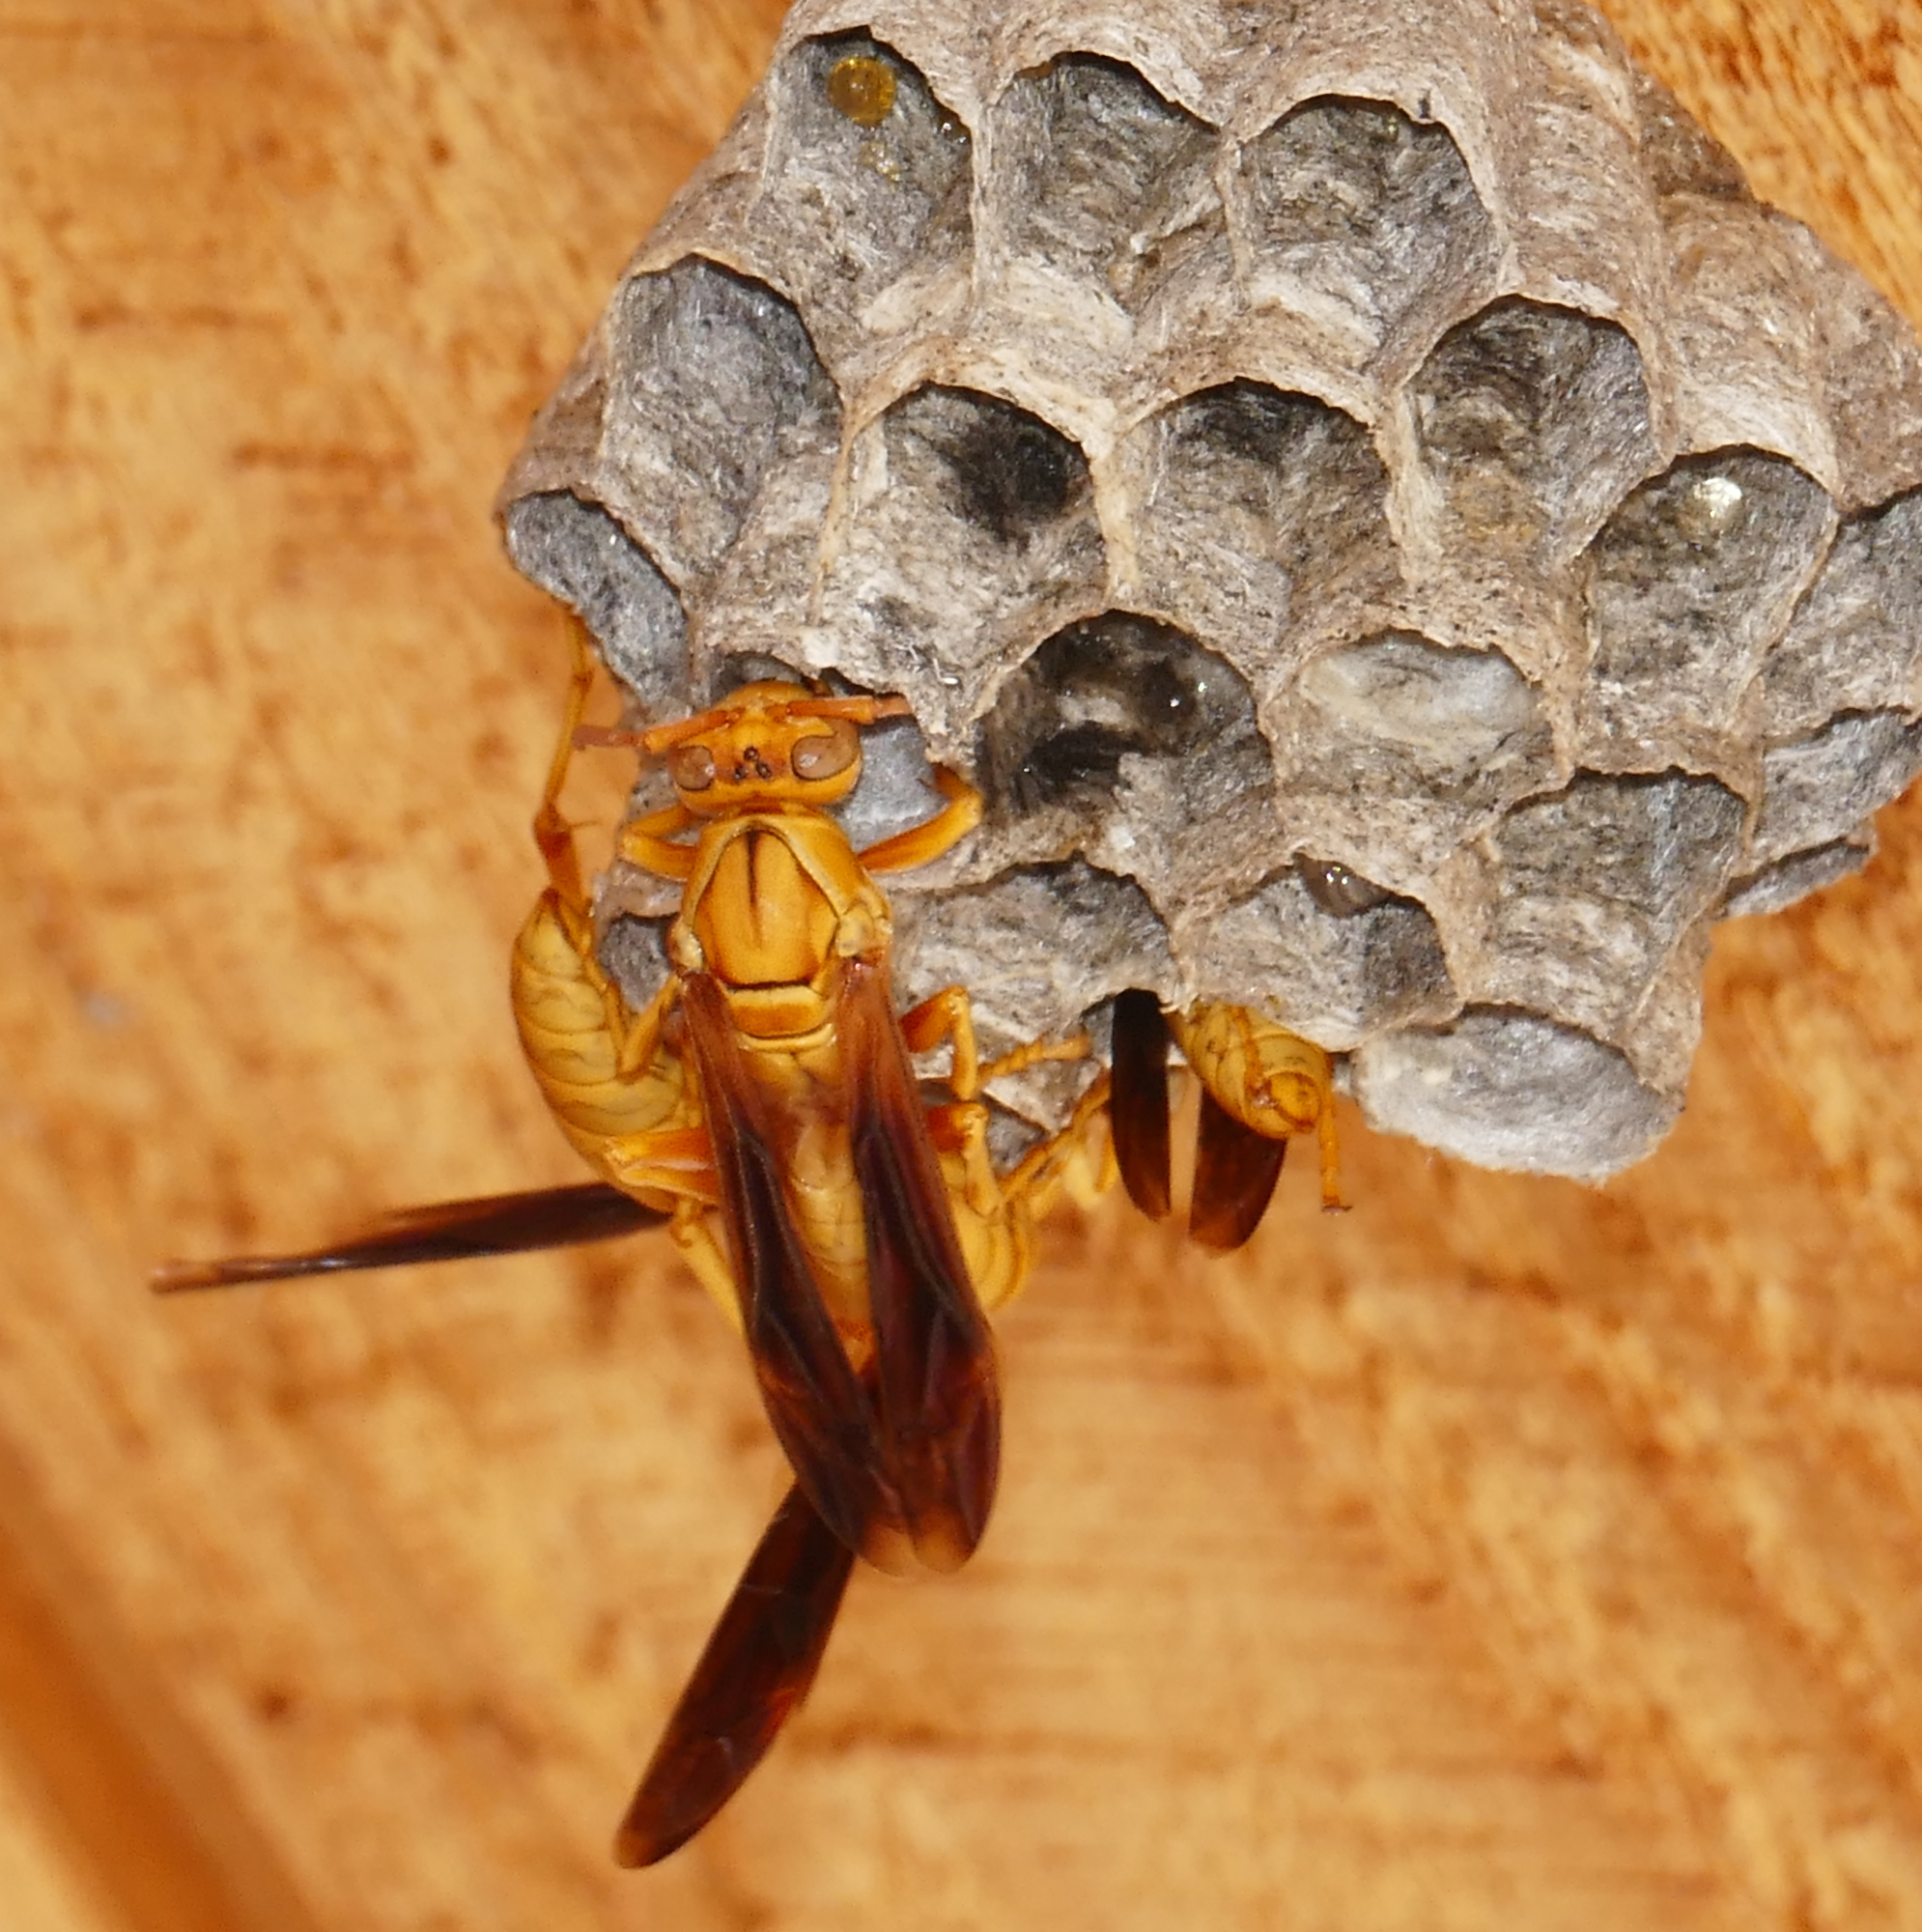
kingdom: Animalia
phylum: Arthropoda
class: Insecta
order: Hymenoptera
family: Eumenidae
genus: Polistes
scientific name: Polistes flavus
